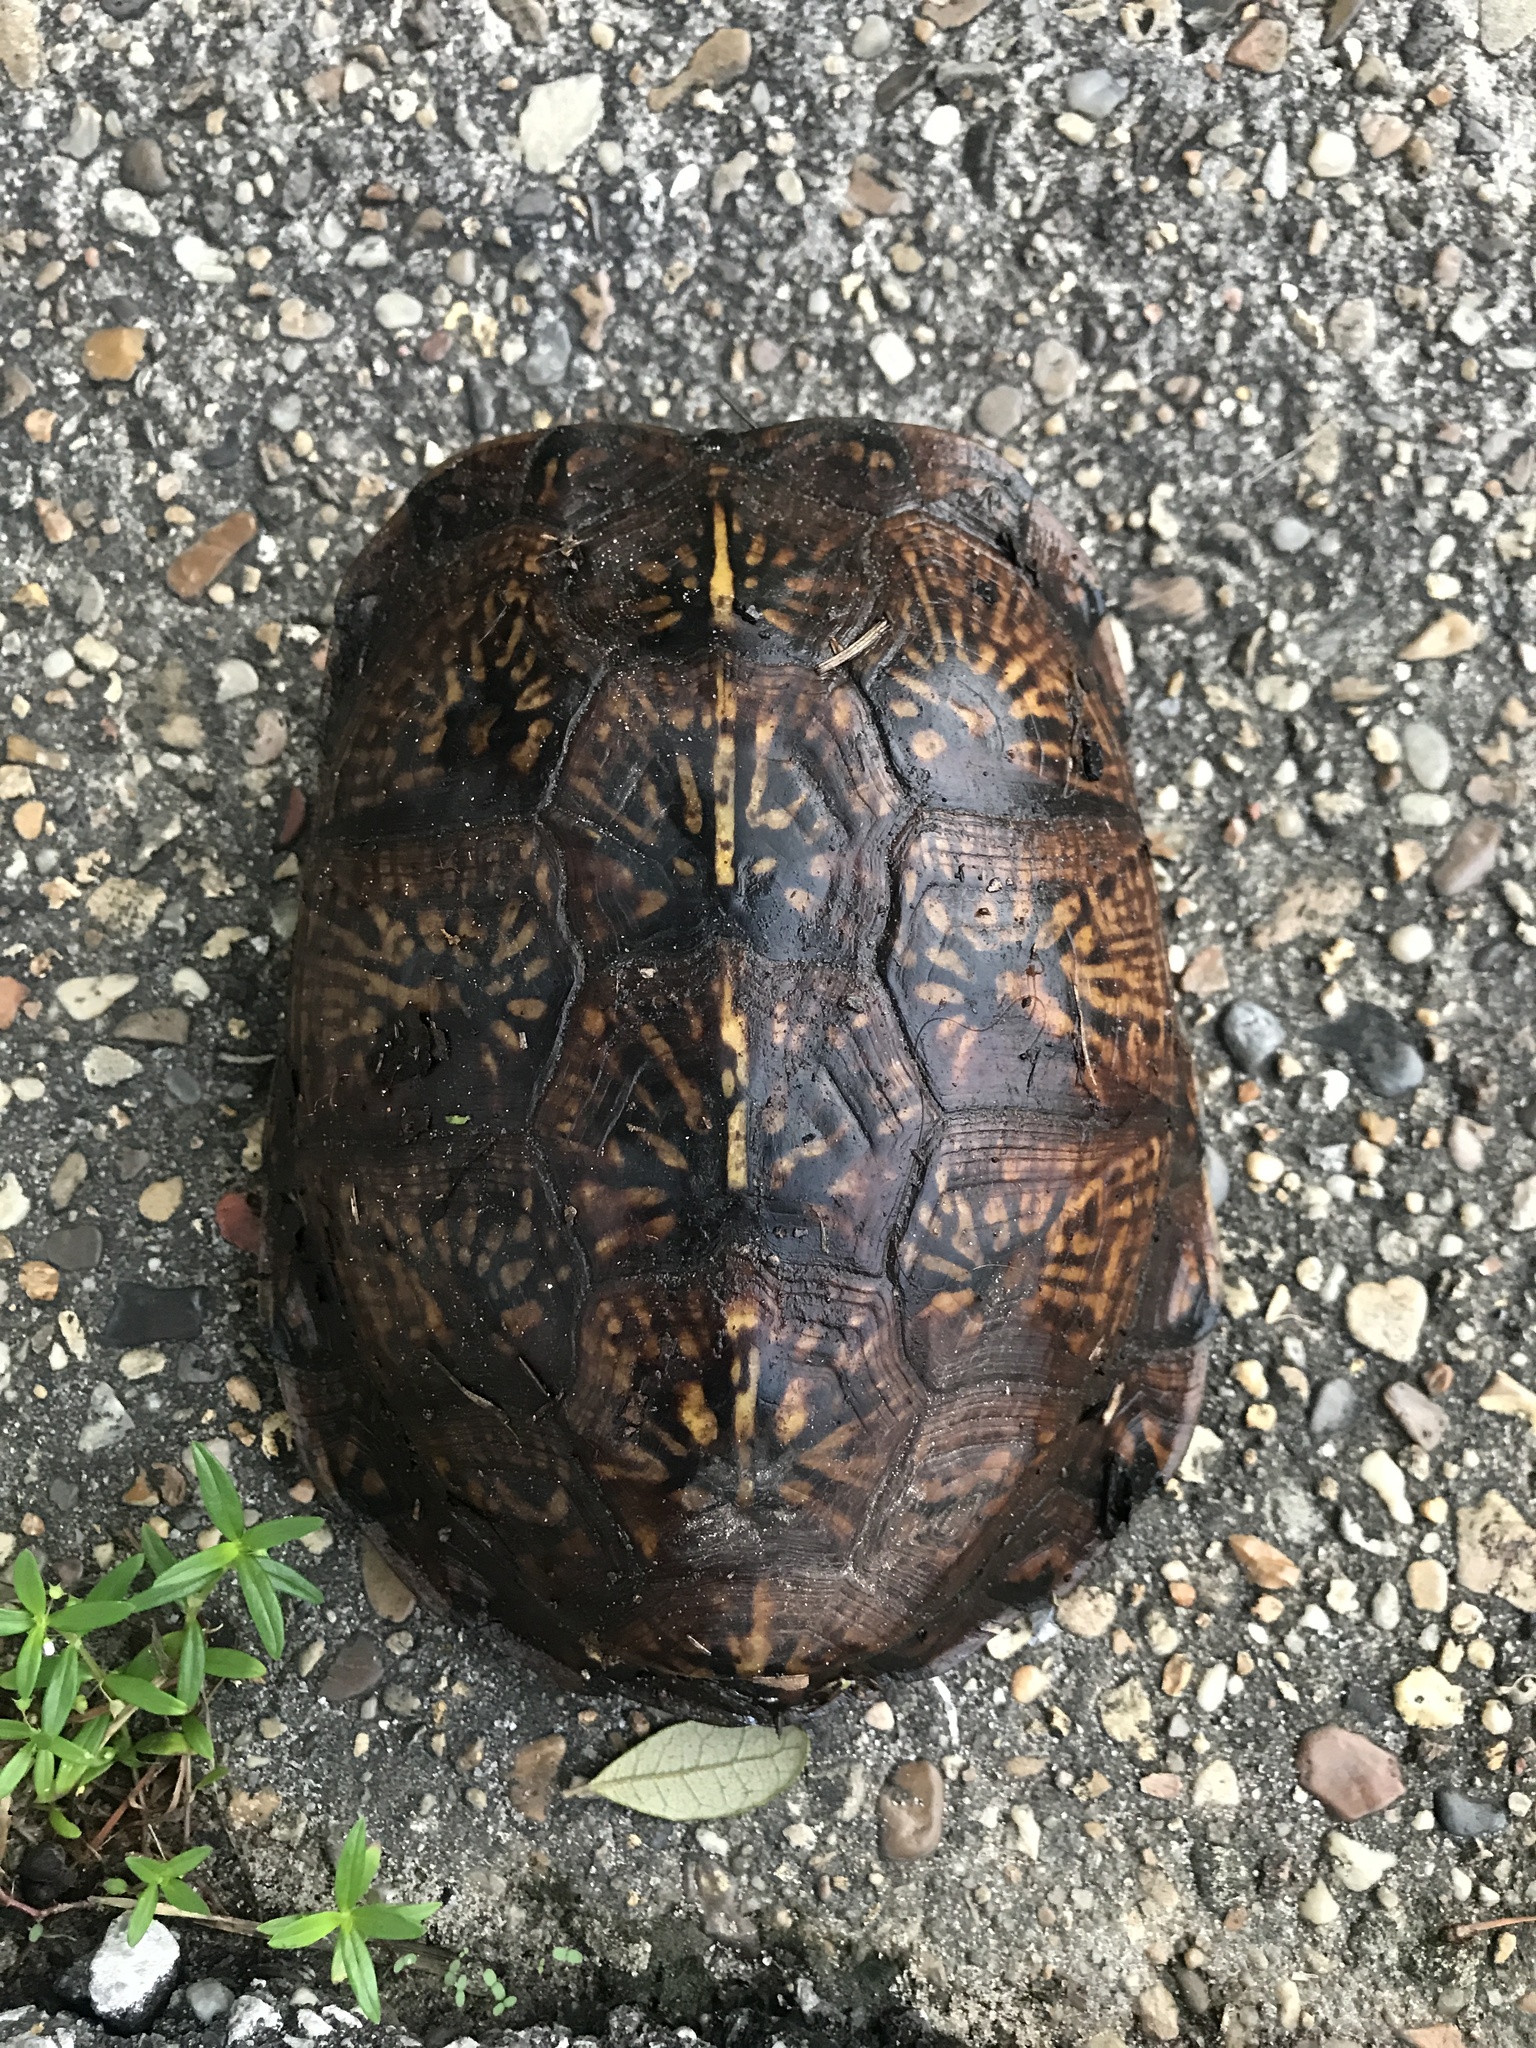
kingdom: Animalia
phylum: Chordata
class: Testudines
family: Emydidae
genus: Terrapene
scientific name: Terrapene carolina
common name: Common box turtle
